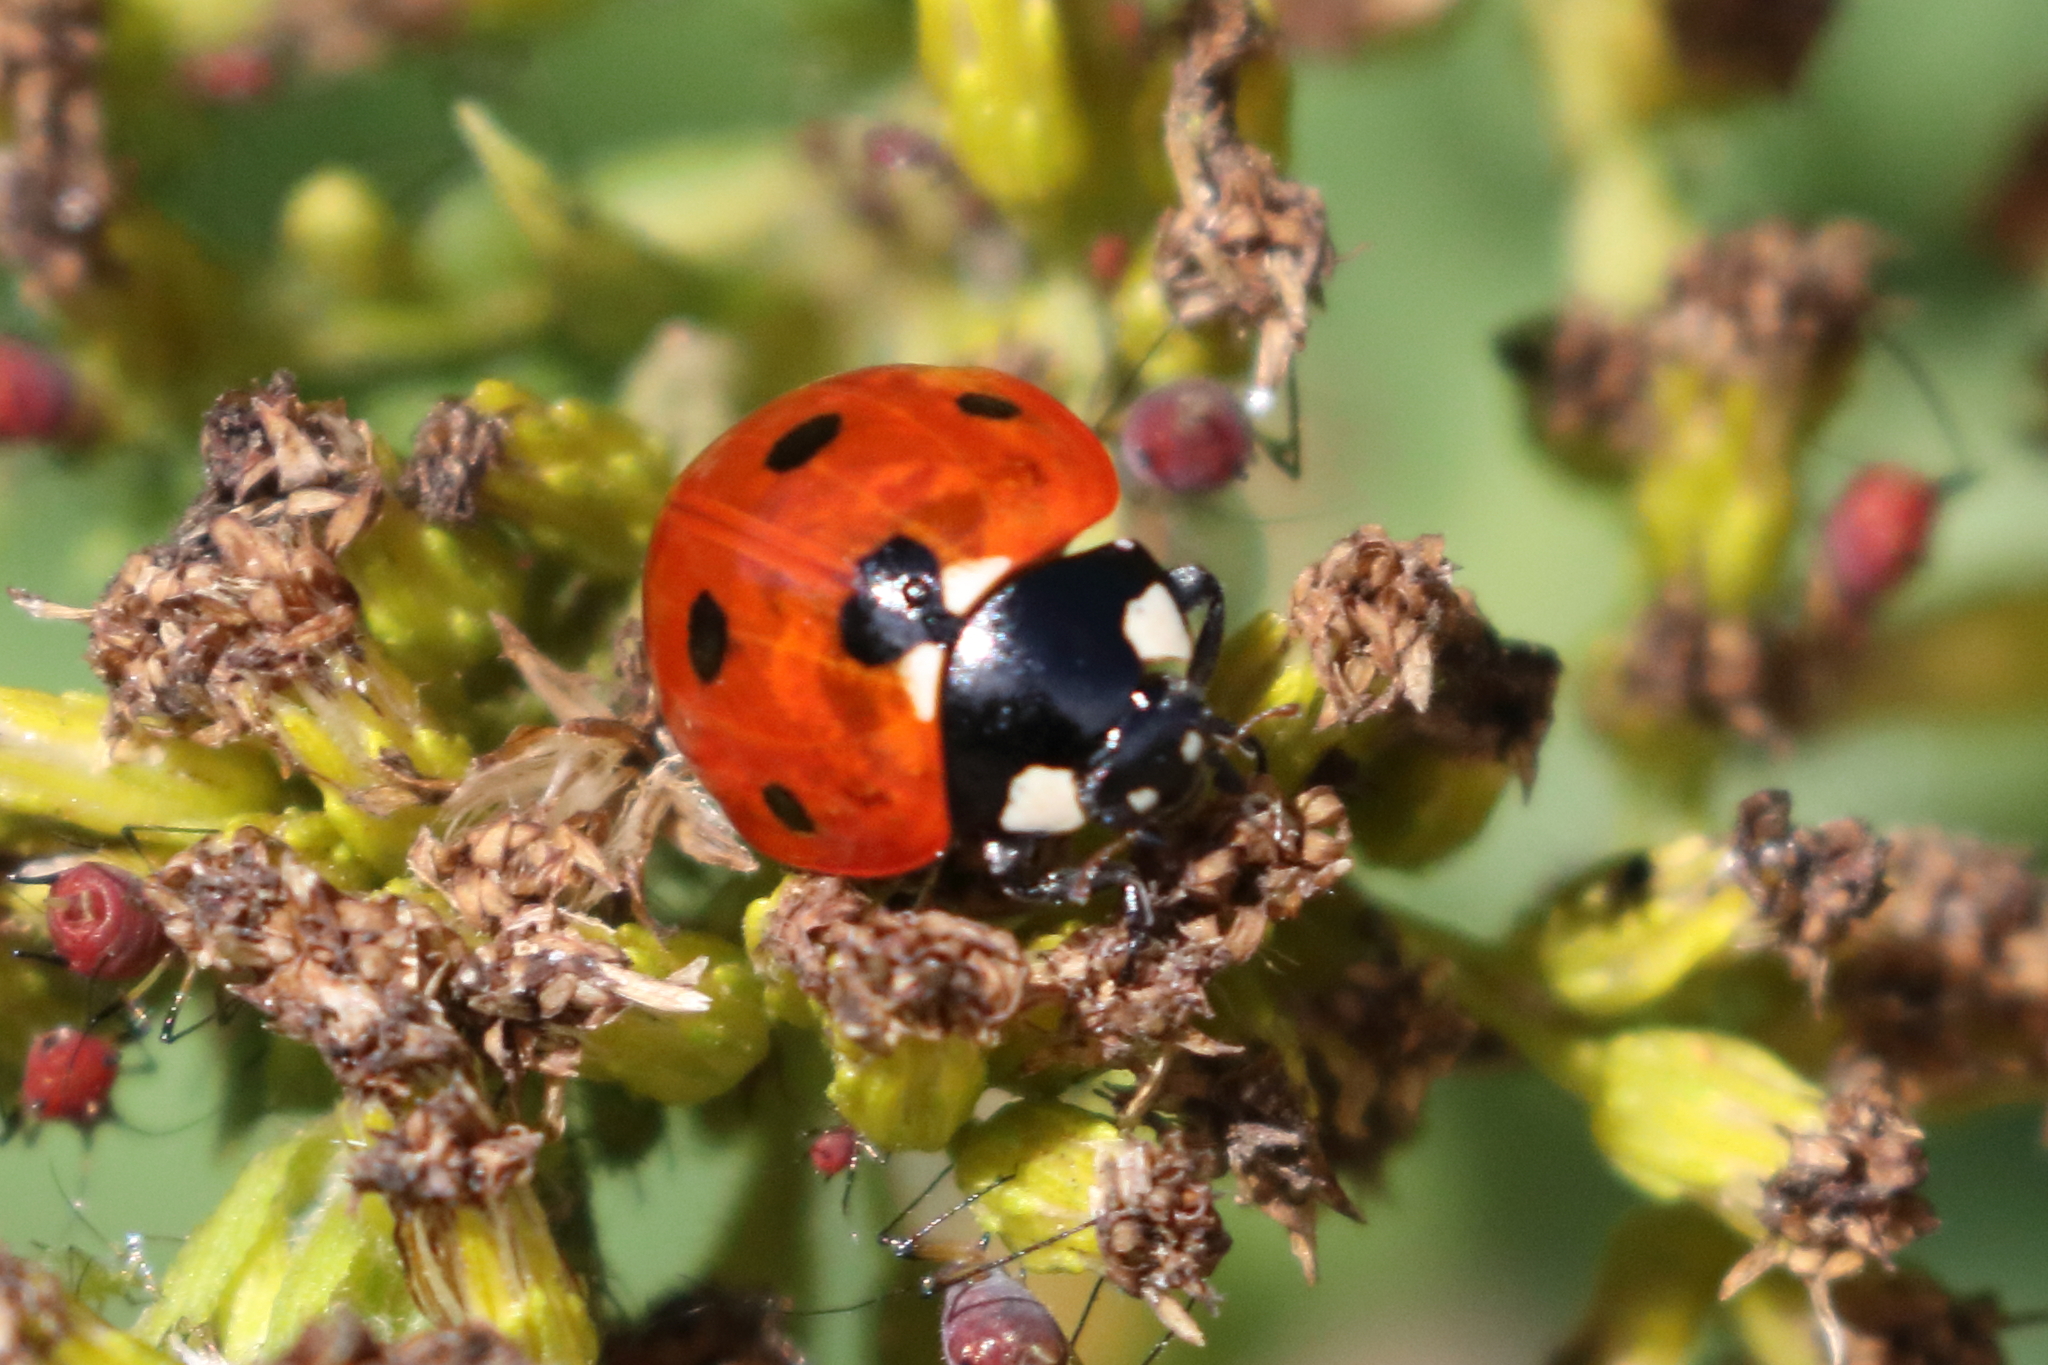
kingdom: Animalia
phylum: Arthropoda
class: Insecta
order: Coleoptera
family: Coccinellidae
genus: Coccinella
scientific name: Coccinella septempunctata
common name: Sevenspotted lady beetle
